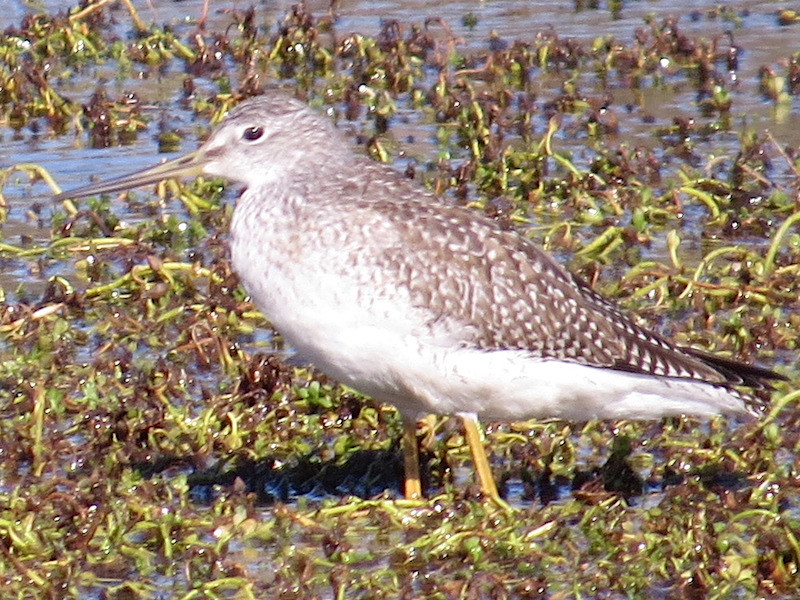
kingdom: Animalia
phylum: Chordata
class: Aves
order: Charadriiformes
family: Scolopacidae
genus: Tringa
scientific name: Tringa melanoleuca
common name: Greater yellowlegs
